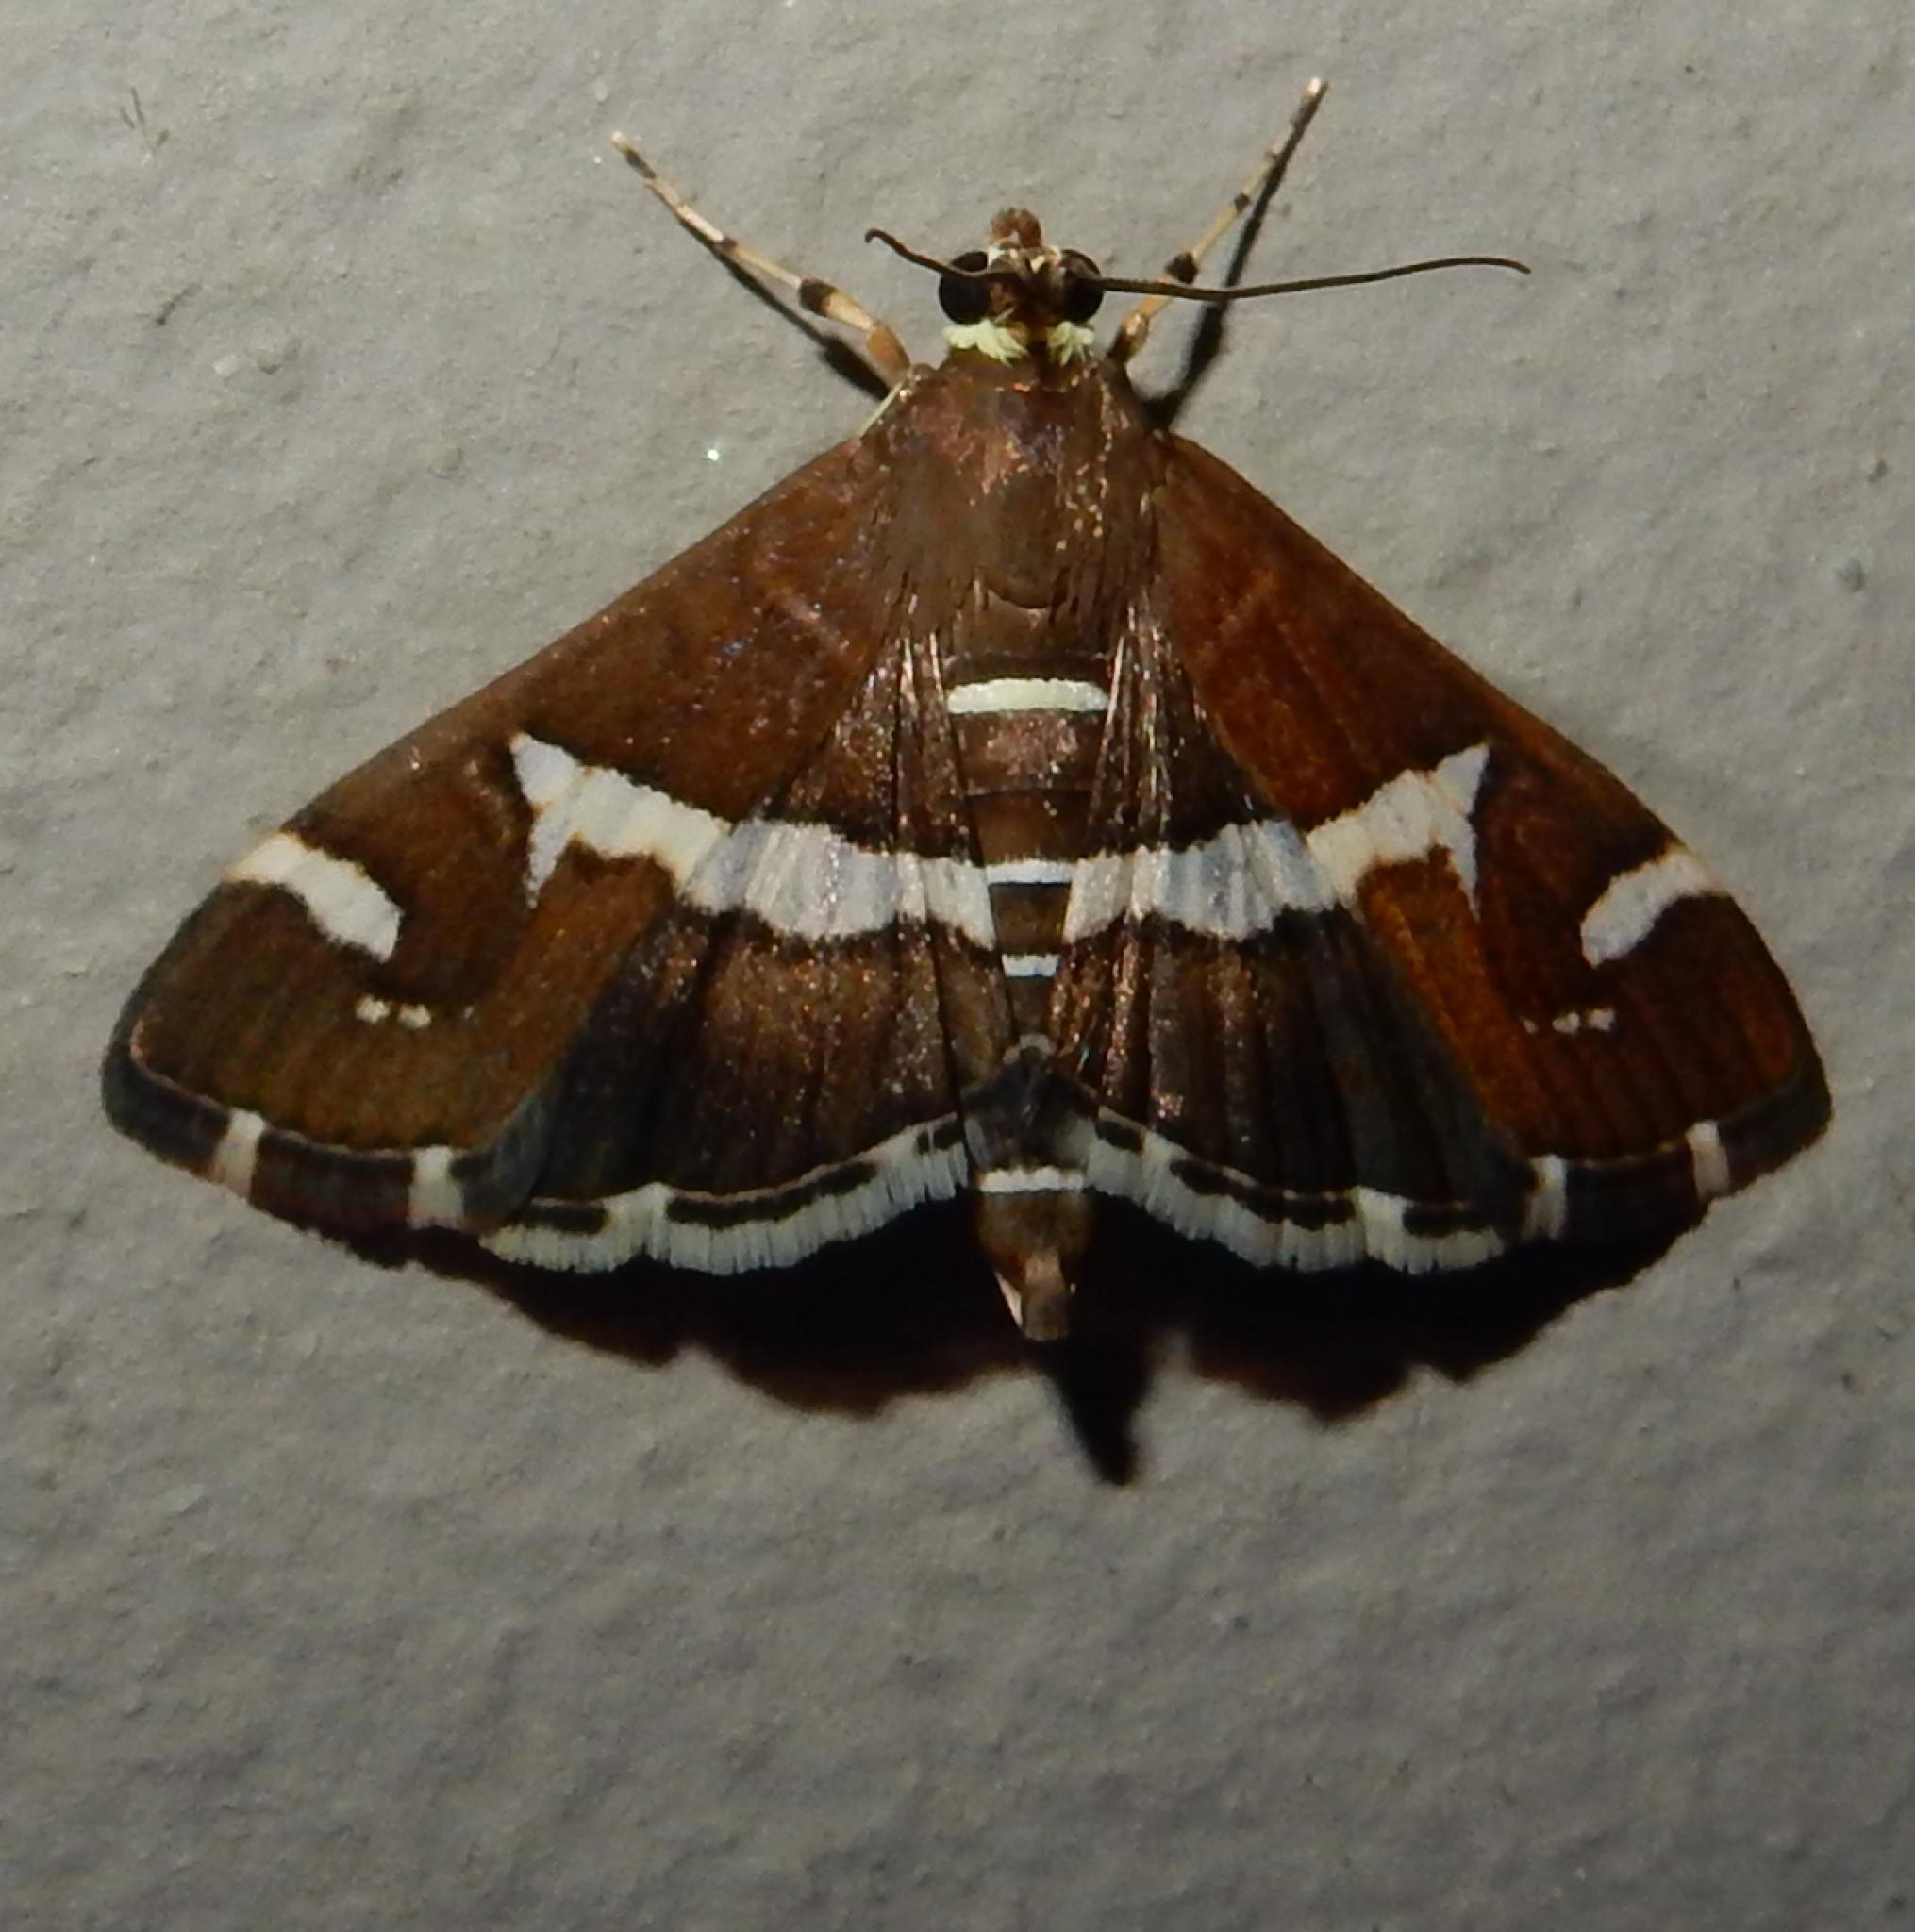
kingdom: Animalia
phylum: Arthropoda
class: Insecta
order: Lepidoptera
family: Crambidae
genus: Spoladea
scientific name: Spoladea recurvalis
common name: Beet webworm moth
